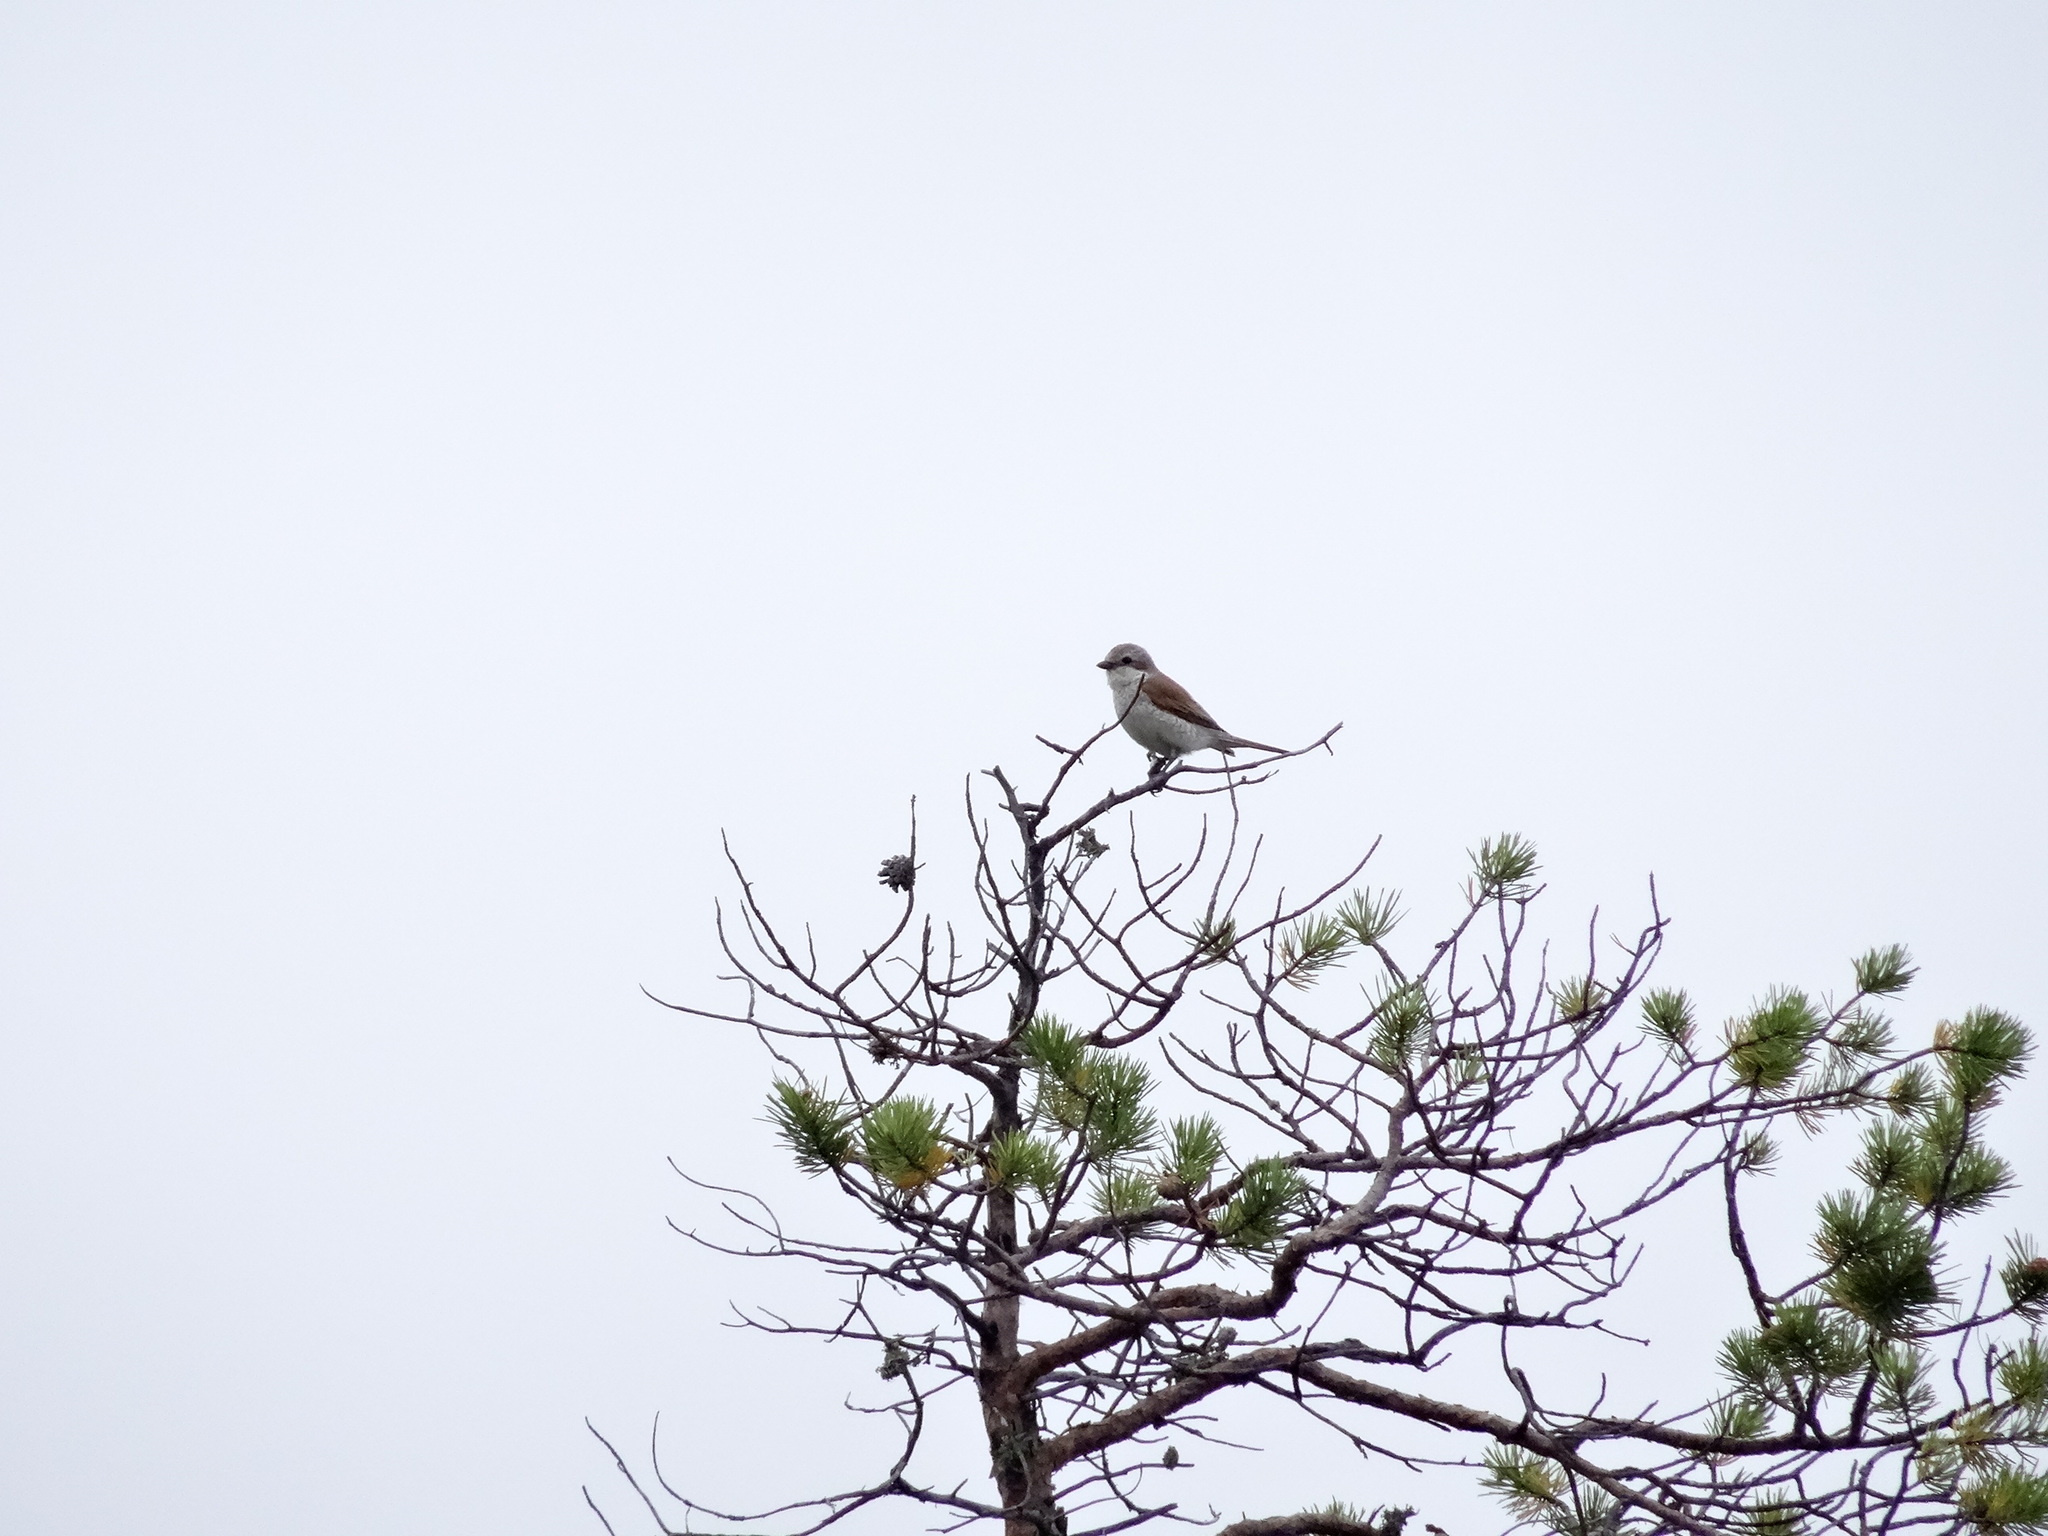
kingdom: Animalia
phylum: Chordata
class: Aves
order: Passeriformes
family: Laniidae
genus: Lanius
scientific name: Lanius collurio
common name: Red-backed shrike
